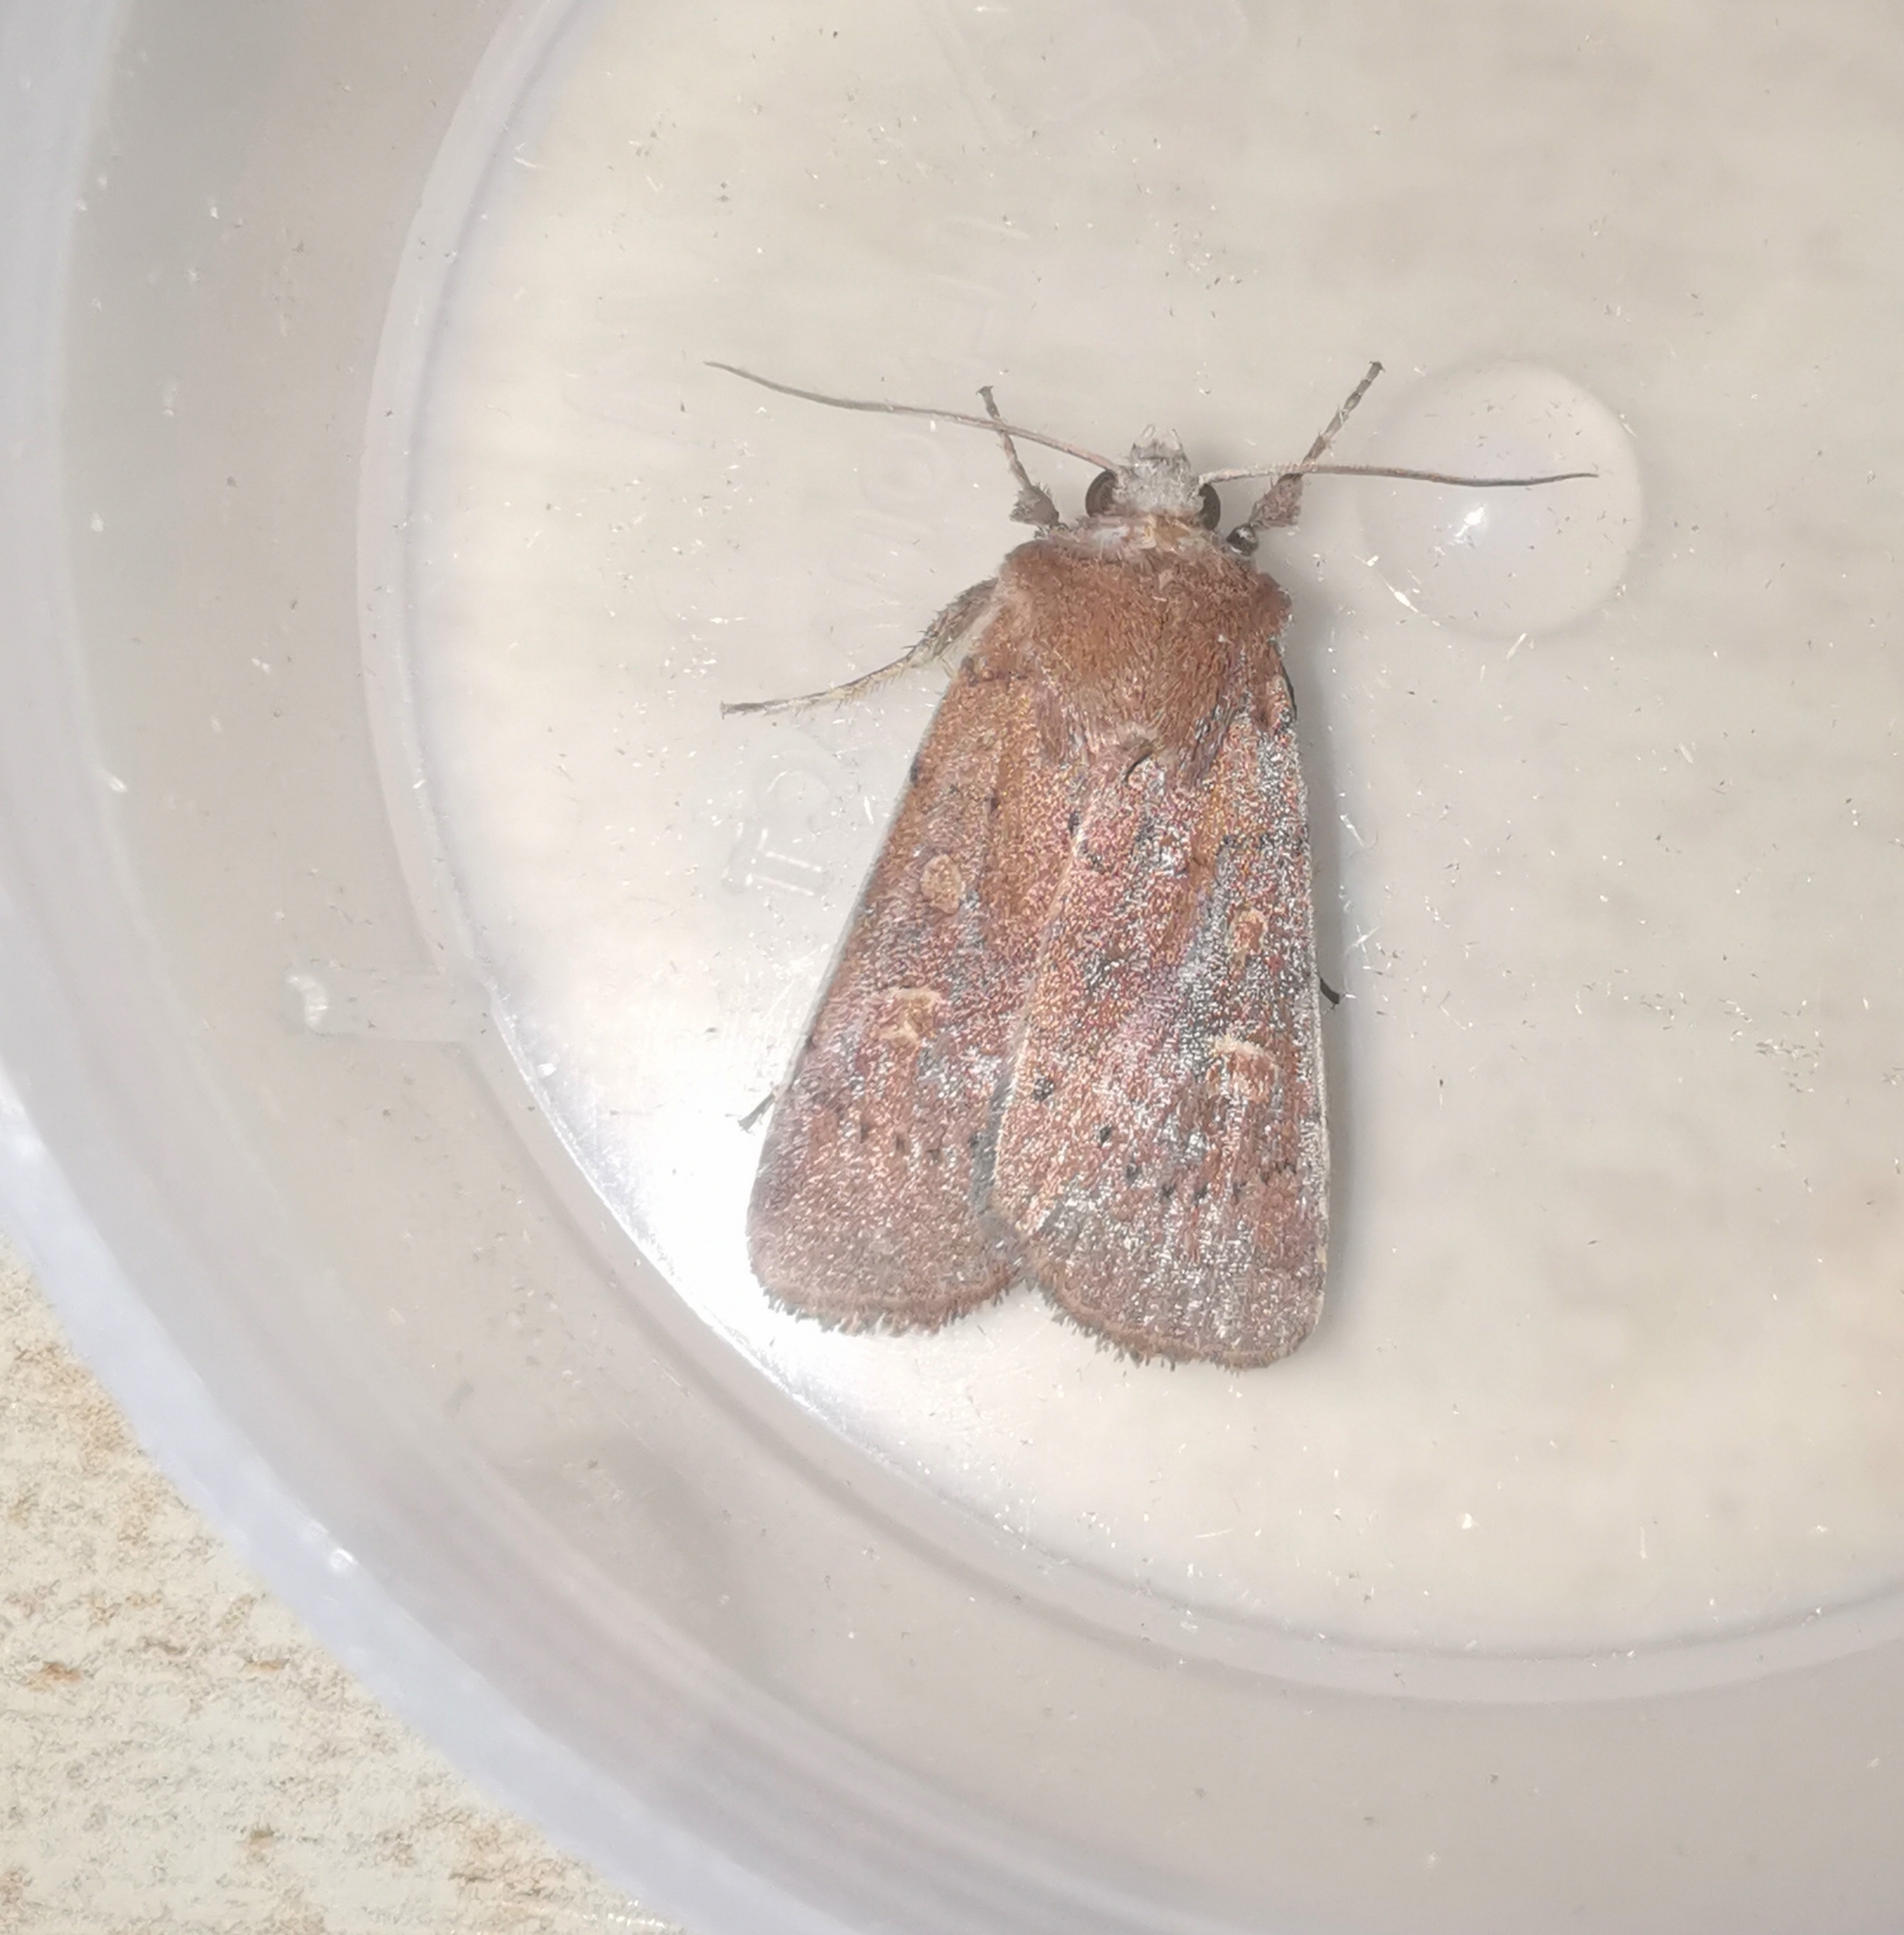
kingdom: Animalia
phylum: Arthropoda
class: Insecta
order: Lepidoptera
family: Noctuidae
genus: Xestia
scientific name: Xestia xanthographa
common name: Square-spot rustic
